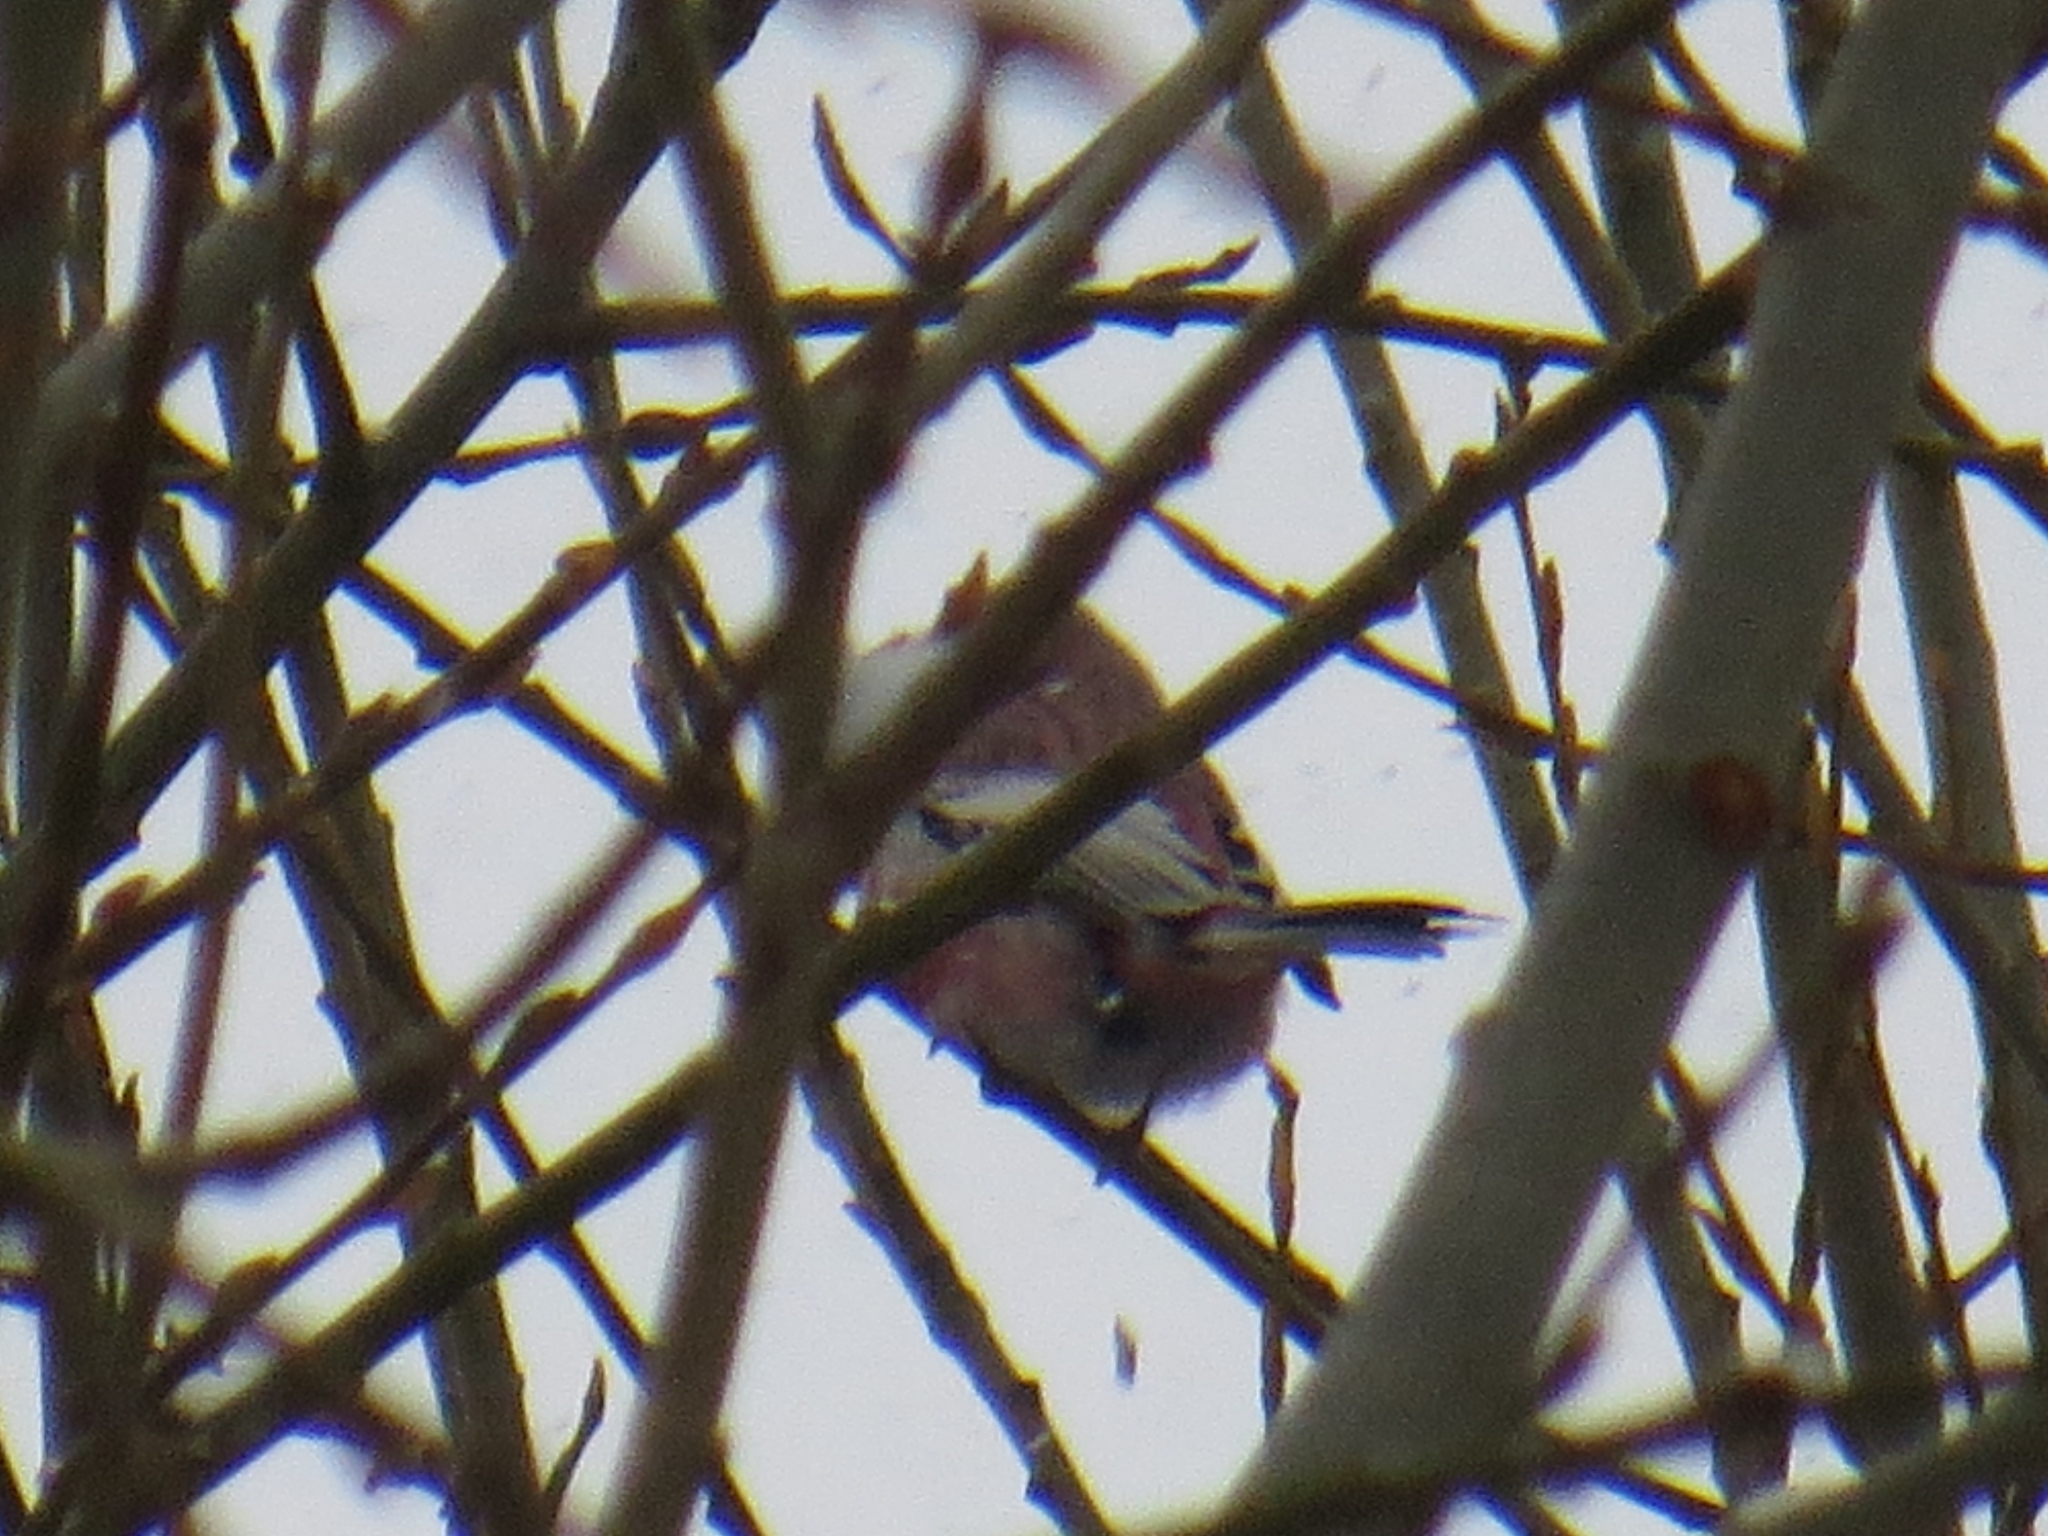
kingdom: Animalia
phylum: Chordata
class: Aves
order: Passeriformes
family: Fringillidae
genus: Carpodacus
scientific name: Carpodacus sibiricus
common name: Long-tailed rosefinch
